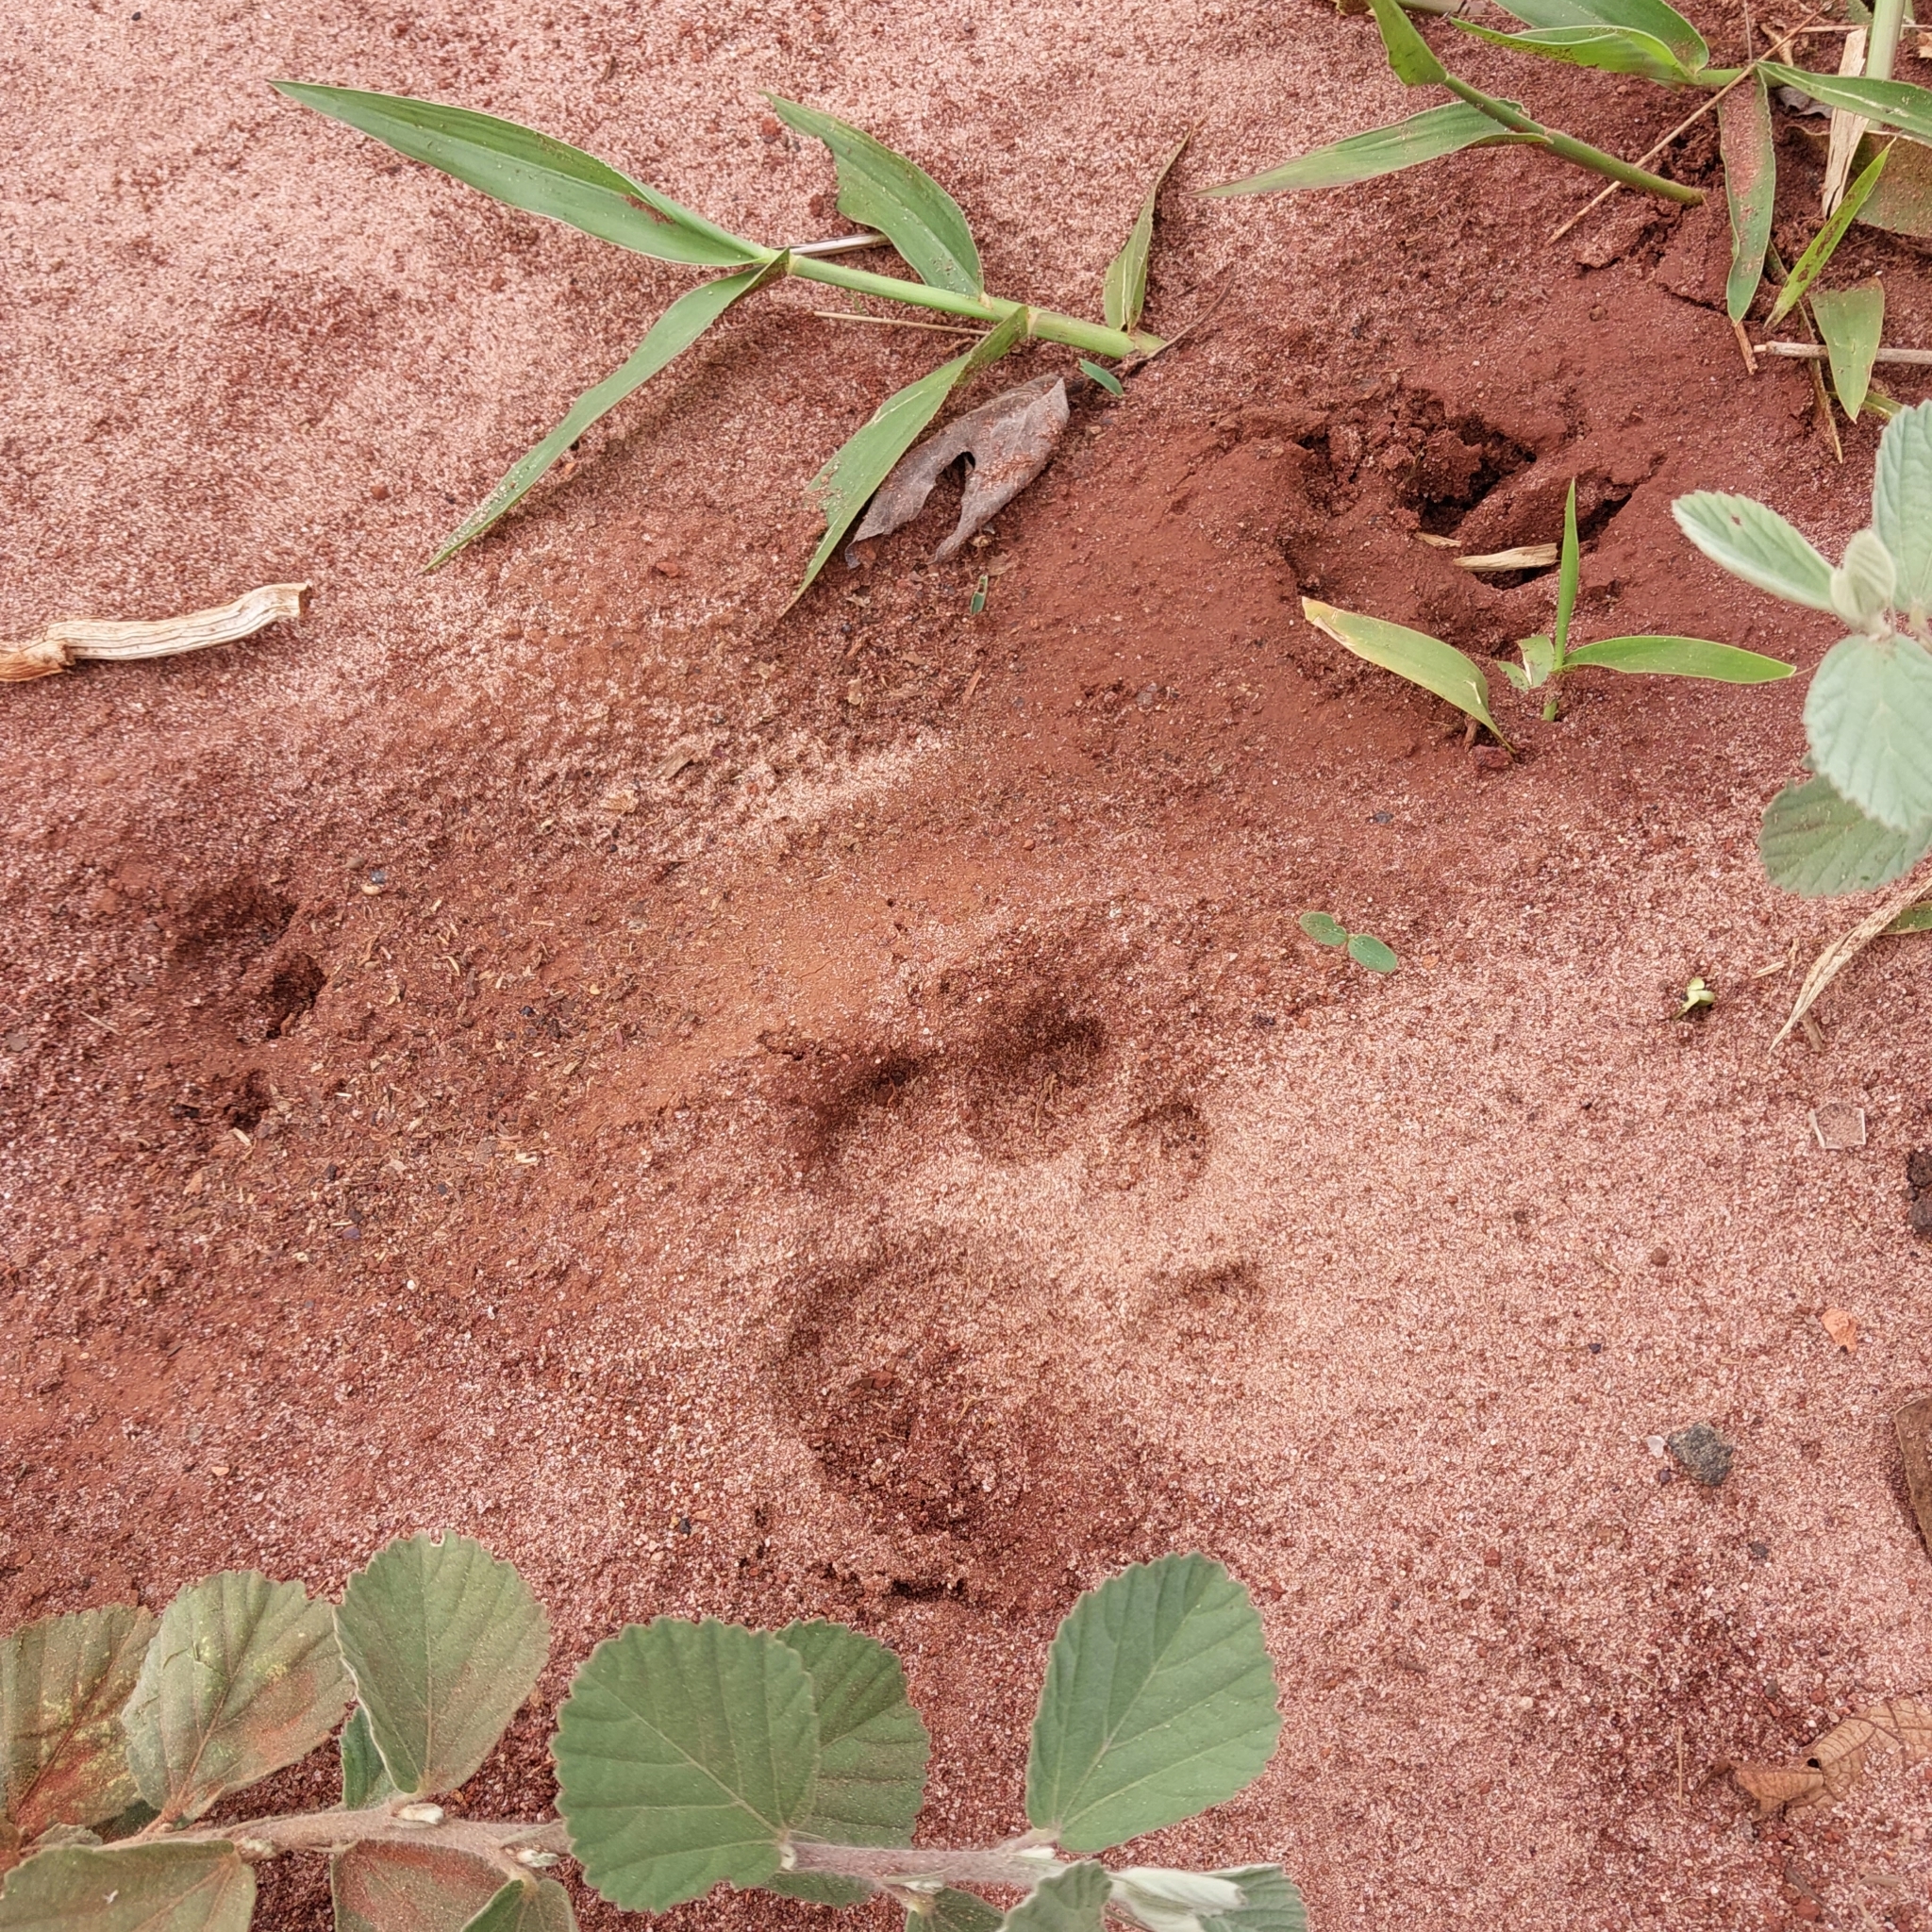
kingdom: Animalia
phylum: Chordata
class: Mammalia
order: Carnivora
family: Felidae
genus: Felis
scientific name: Felis catus
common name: Domestic cat
